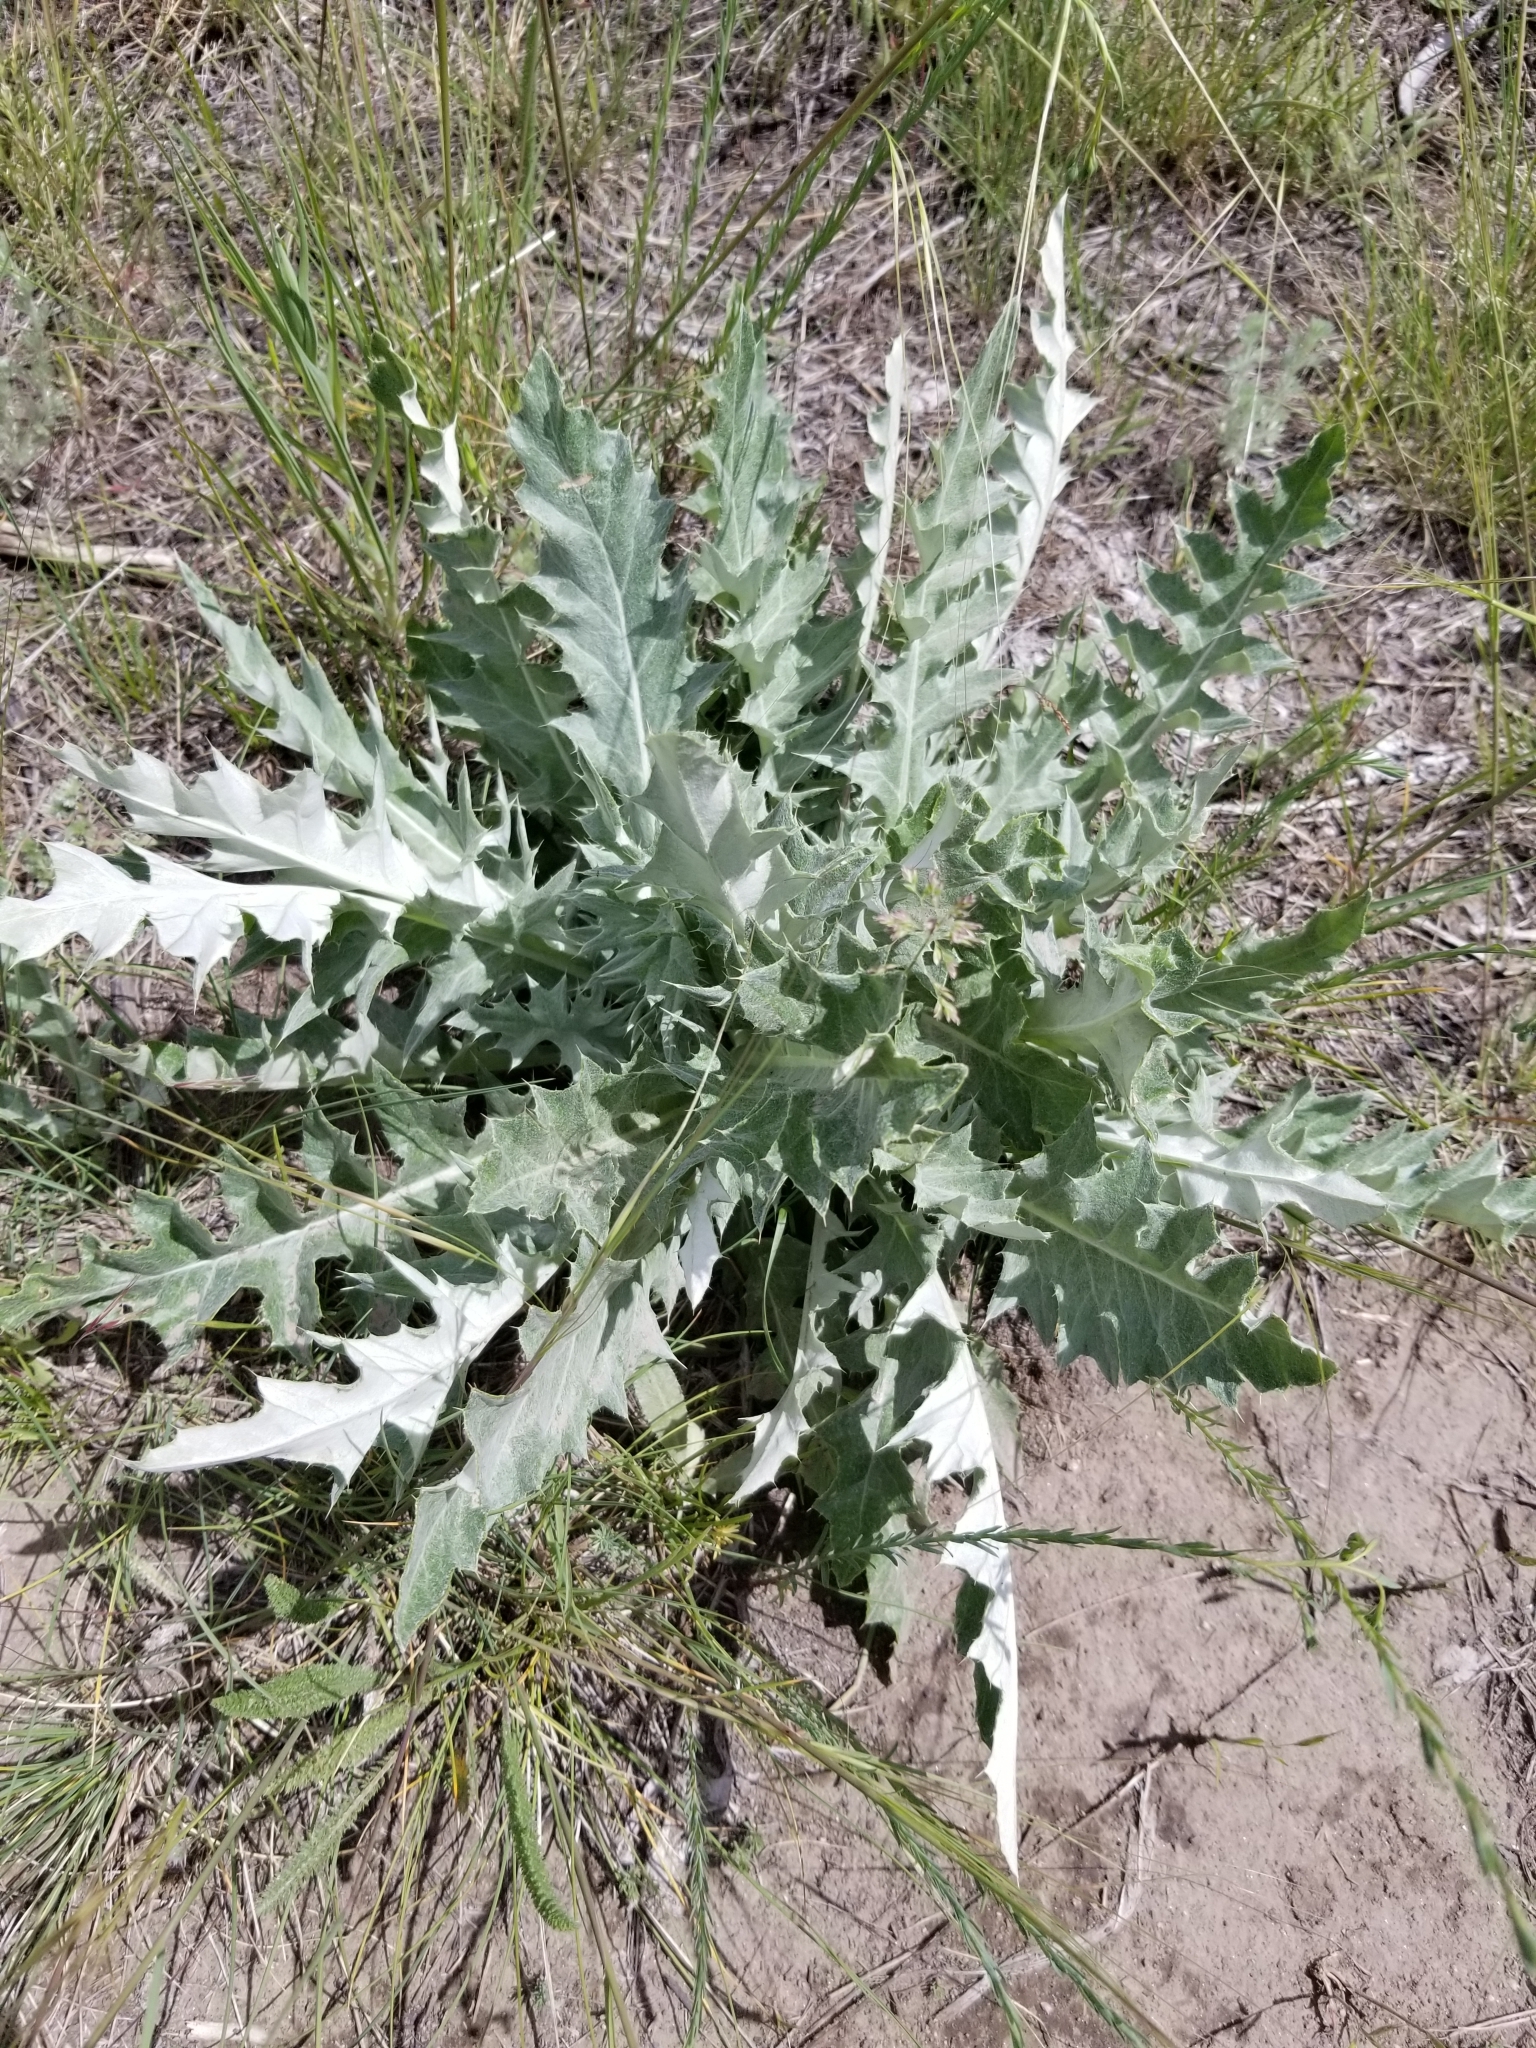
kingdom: Plantae
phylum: Tracheophyta
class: Magnoliopsida
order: Asterales
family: Asteraceae
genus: Cirsium
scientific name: Cirsium undulatum
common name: Pasture thistle
